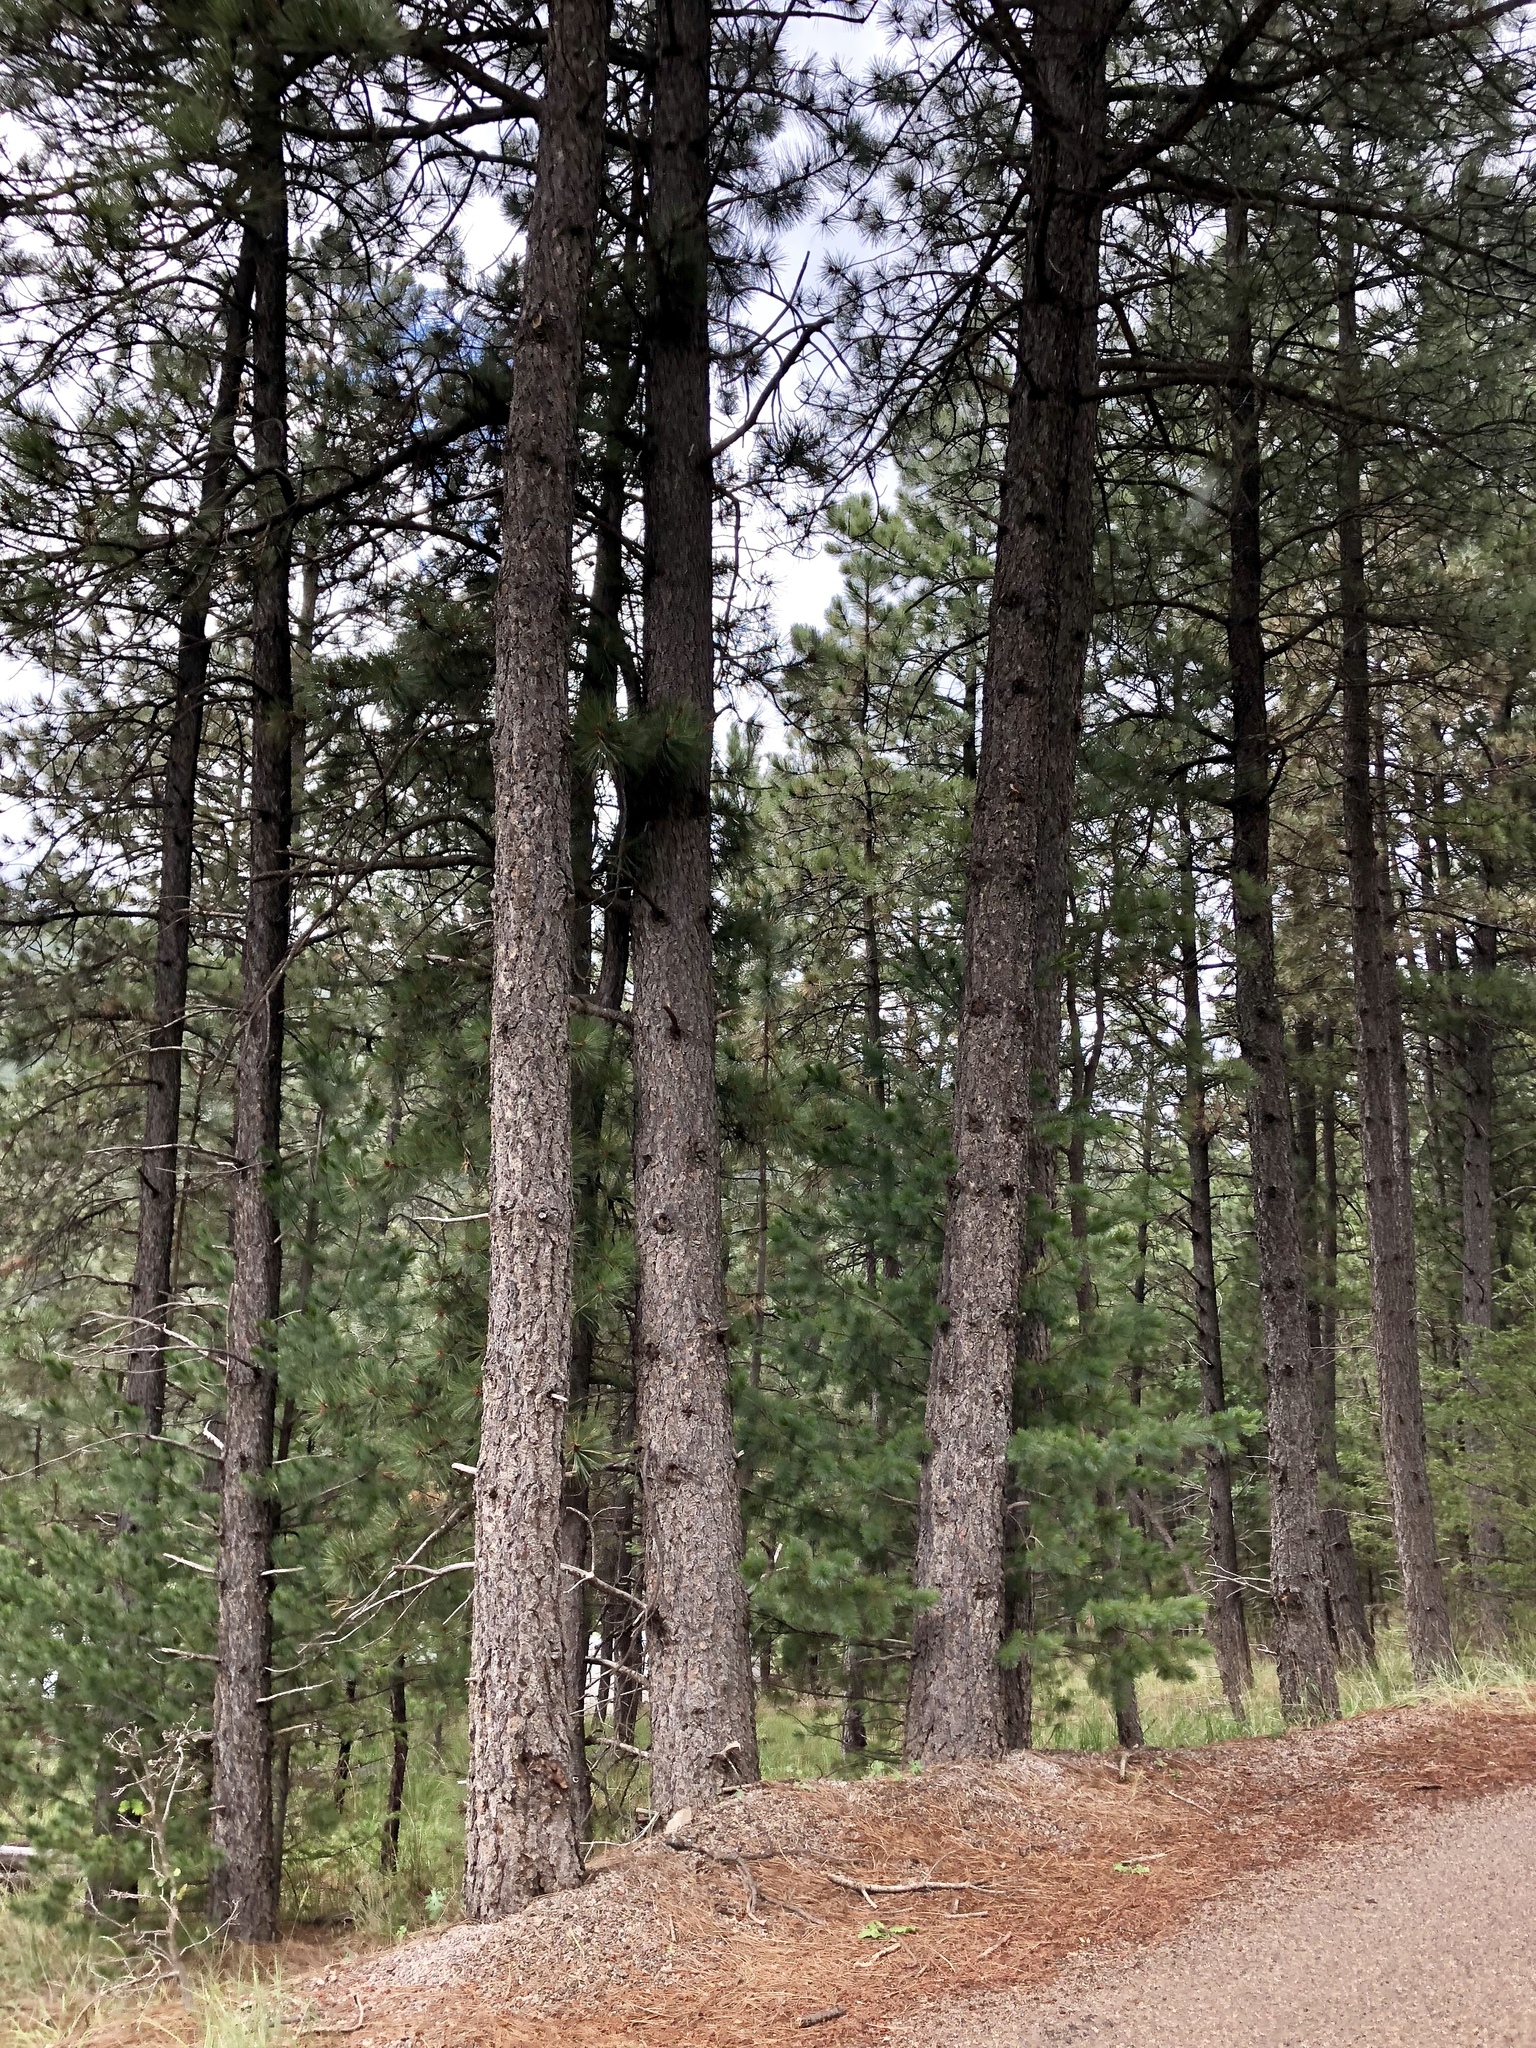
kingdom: Plantae
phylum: Tracheophyta
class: Pinopsida
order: Pinales
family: Pinaceae
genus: Pinus
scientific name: Pinus ponderosa
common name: Western yellow-pine
